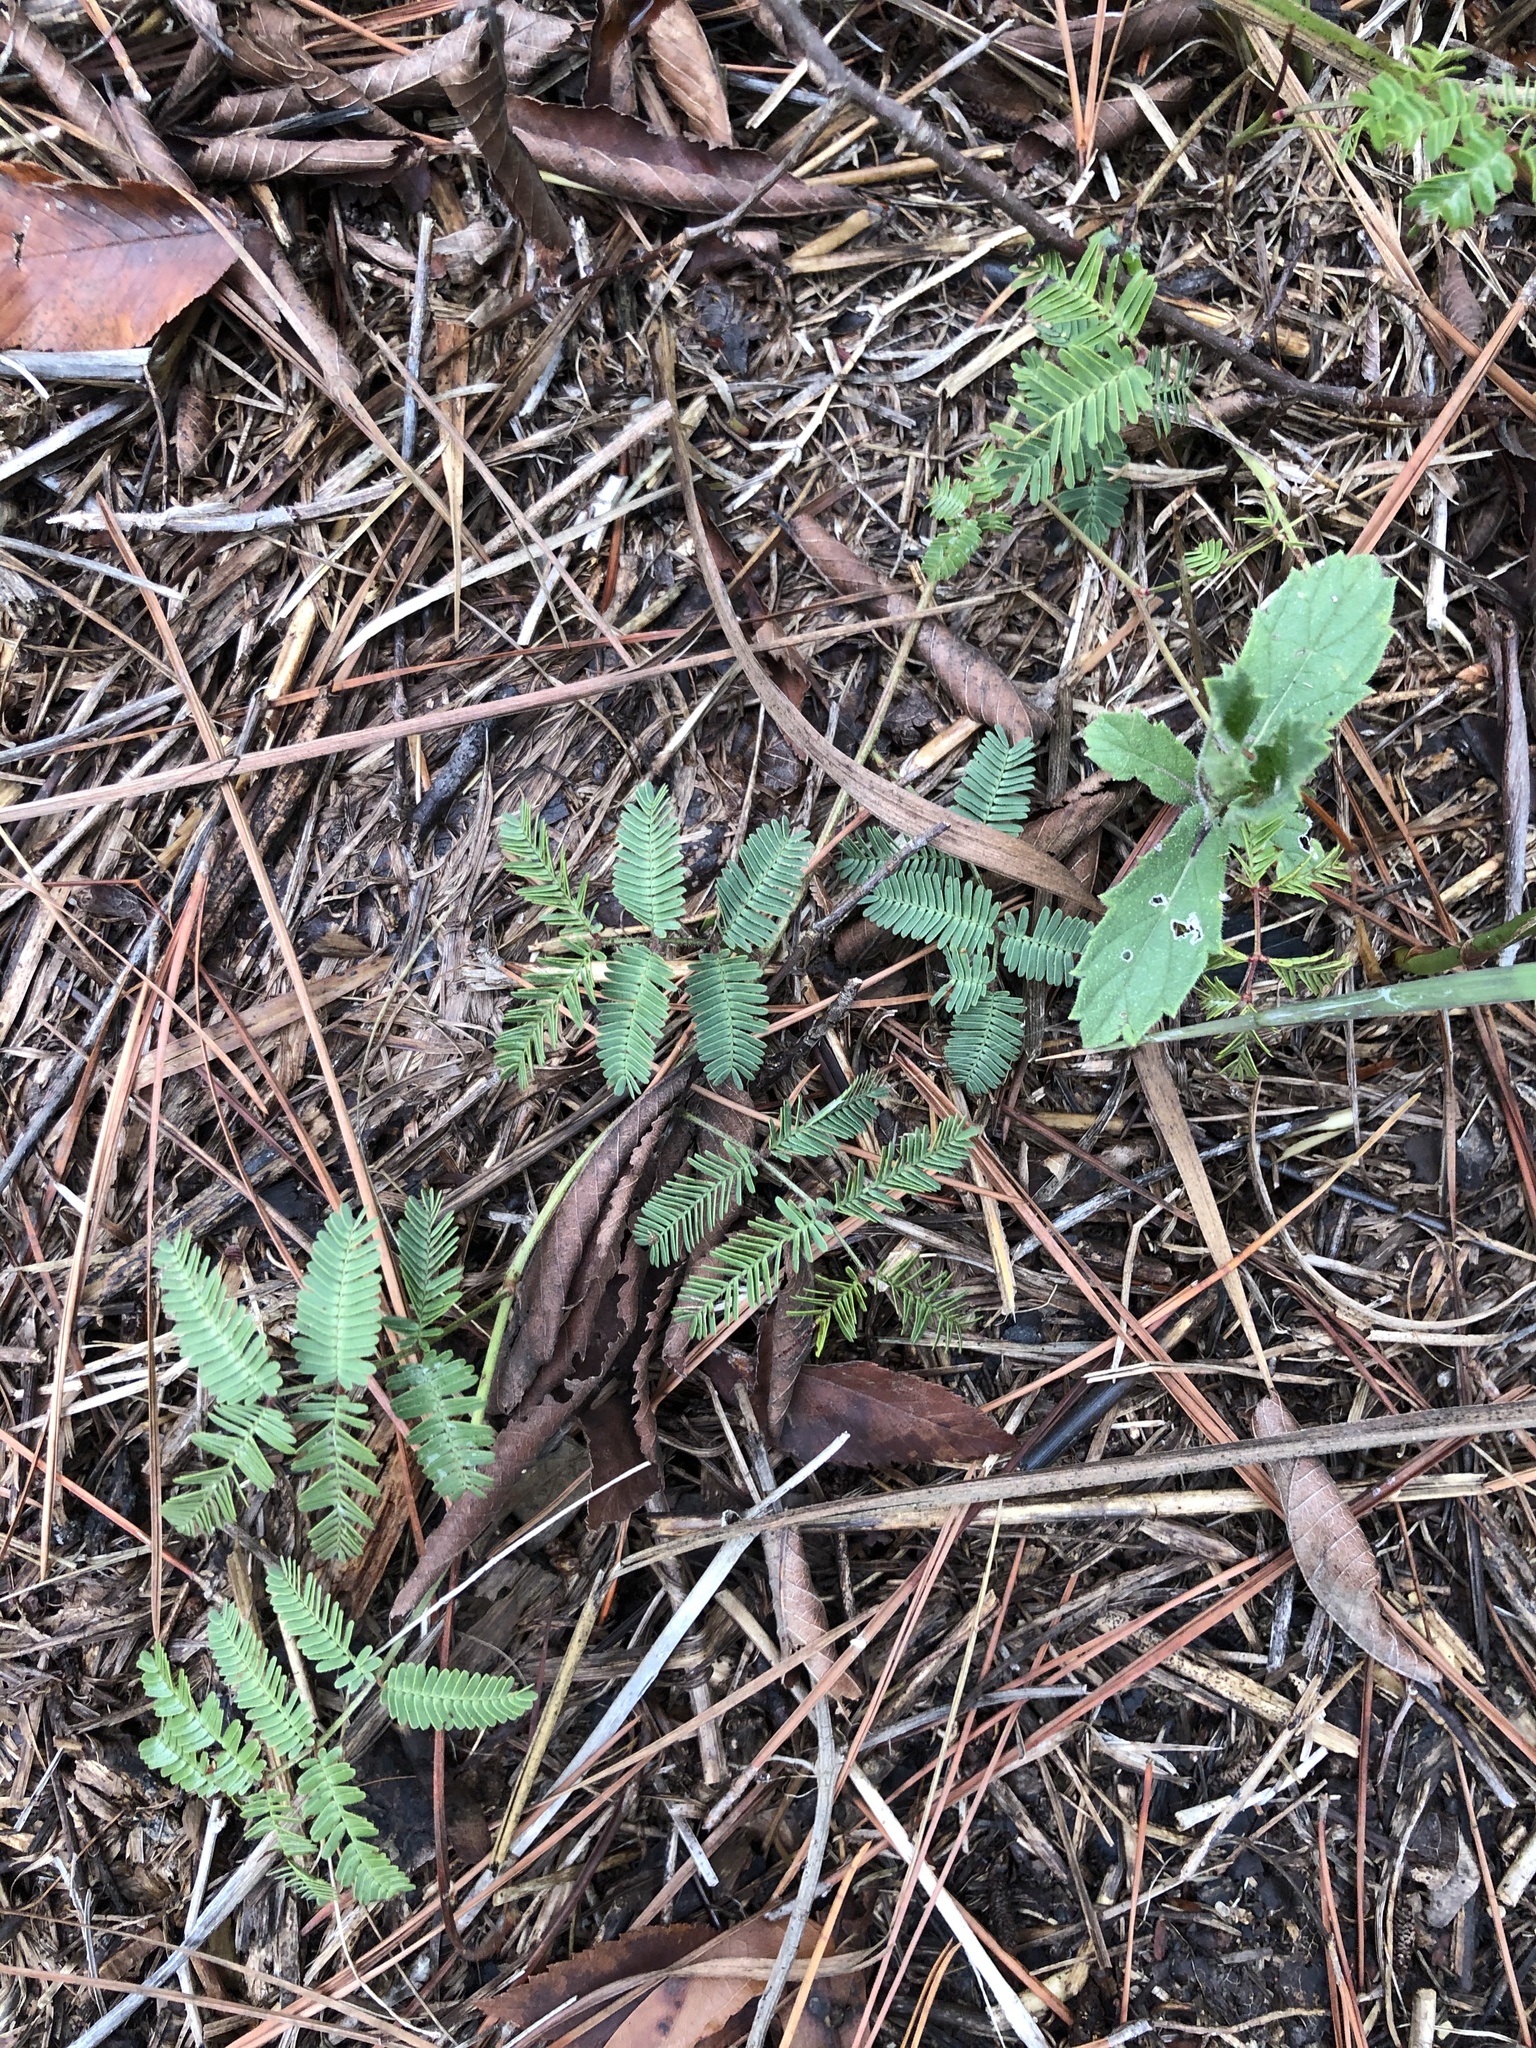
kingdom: Plantae
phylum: Tracheophyta
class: Magnoliopsida
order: Fabales
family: Fabaceae
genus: Neptunia
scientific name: Neptunia lutea
